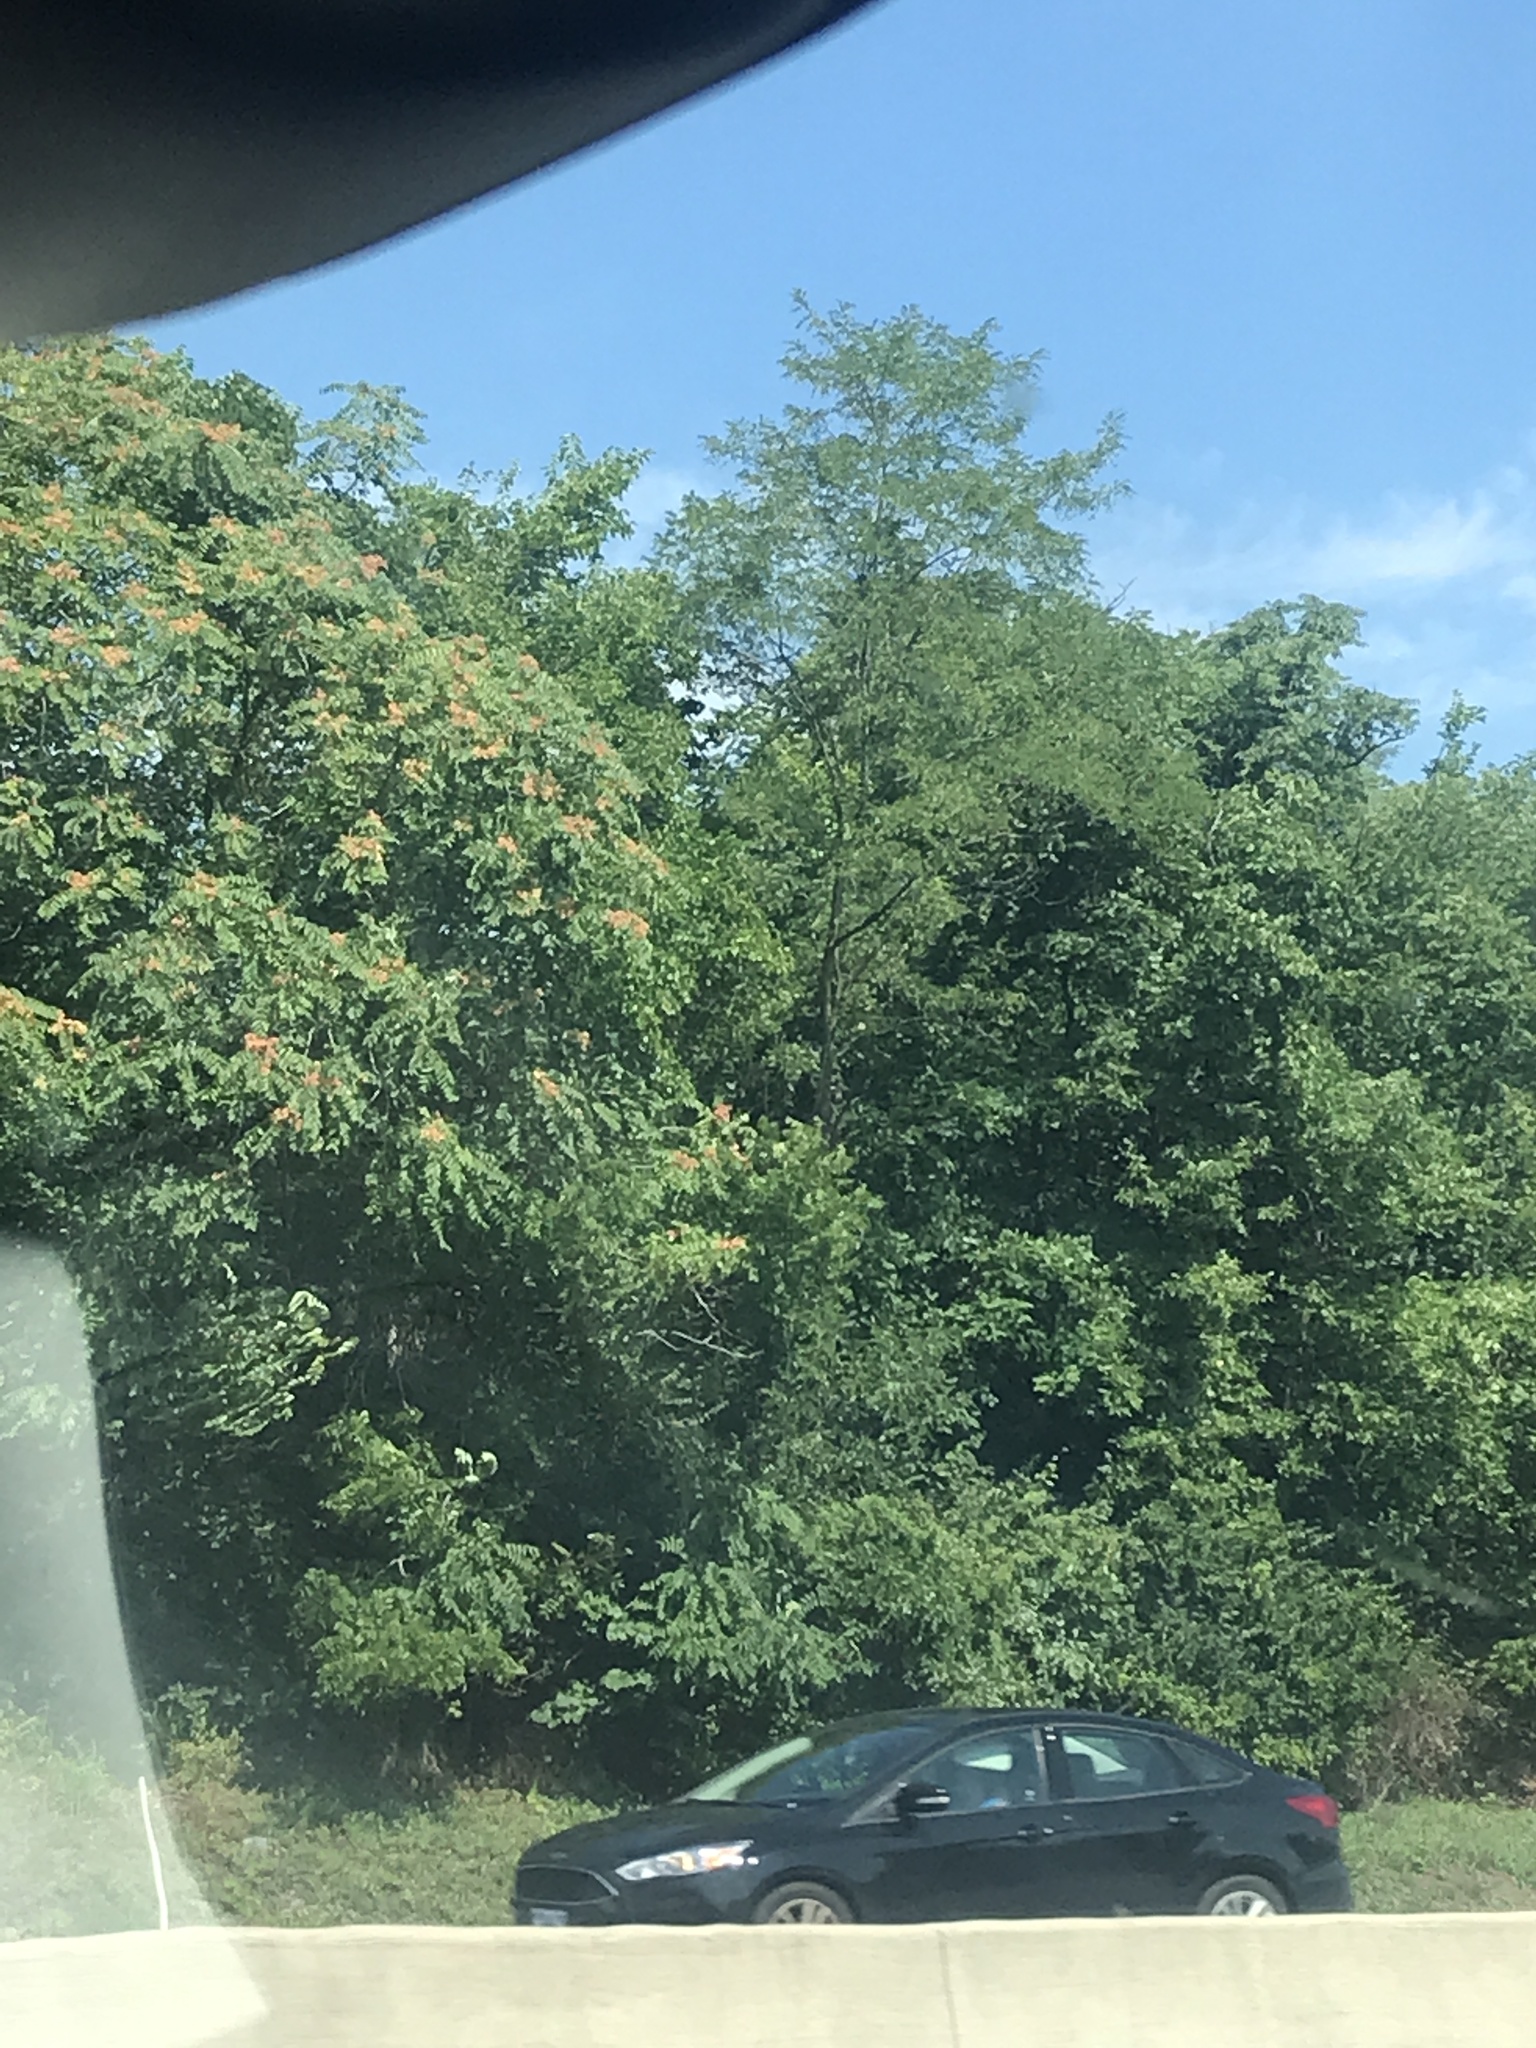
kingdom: Plantae
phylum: Tracheophyta
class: Magnoliopsida
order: Sapindales
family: Simaroubaceae
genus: Ailanthus
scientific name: Ailanthus altissima
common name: Tree-of-heaven
